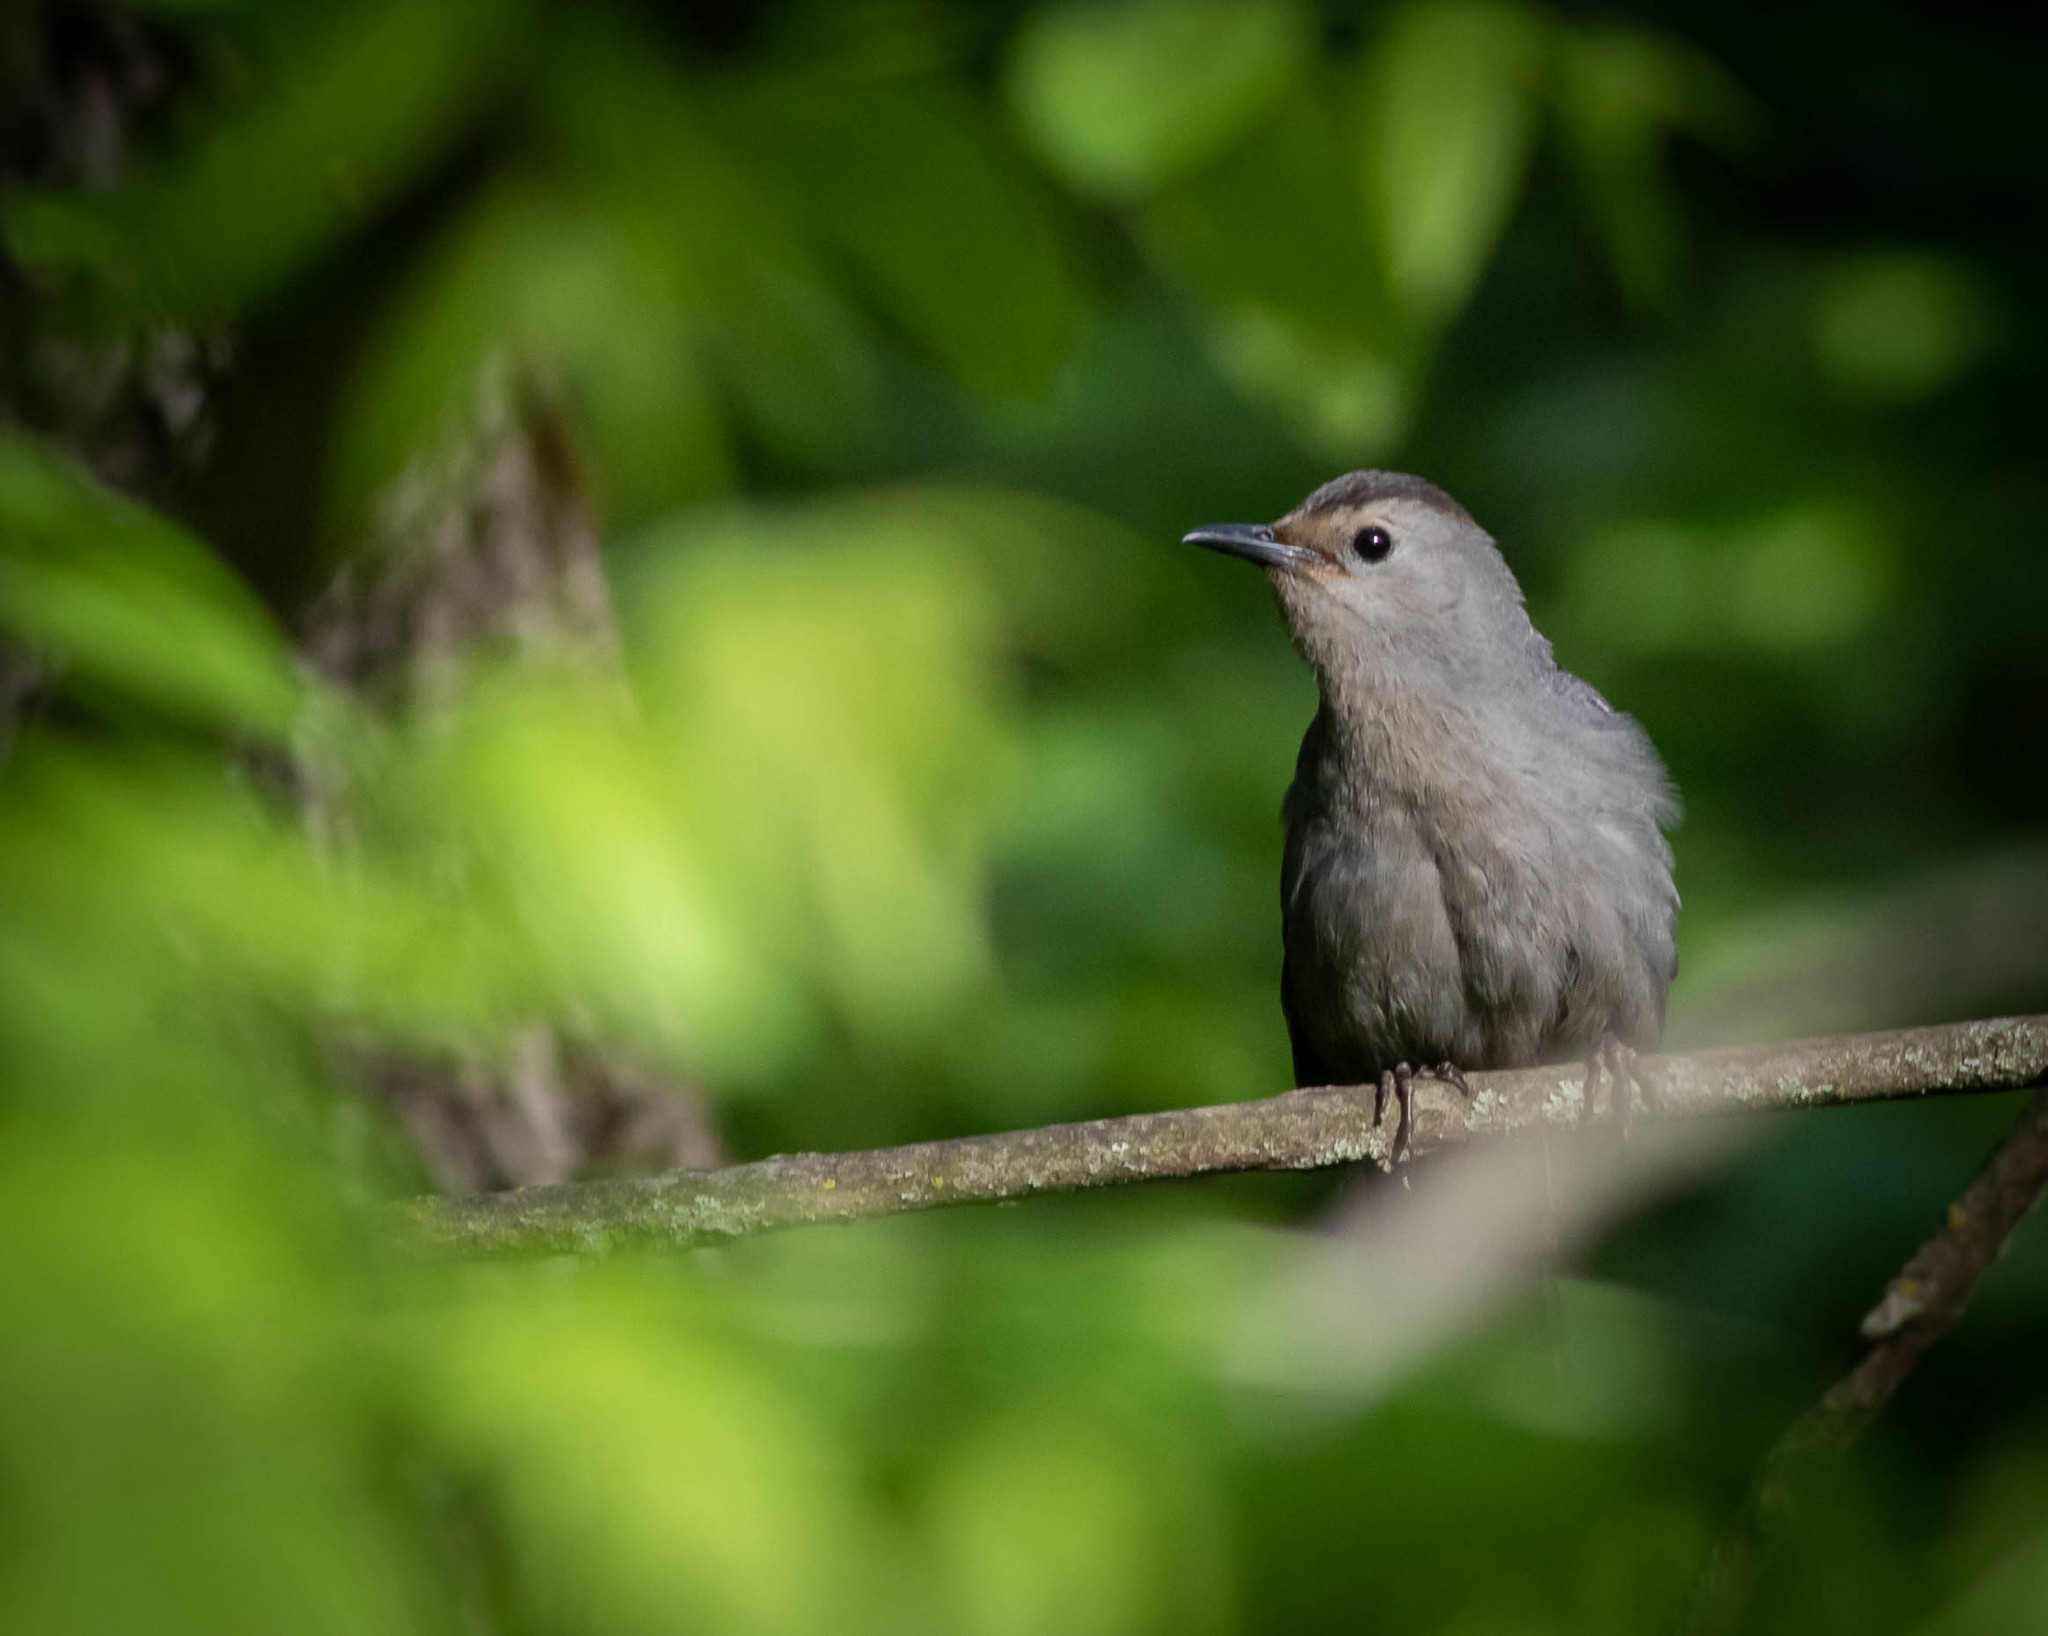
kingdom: Animalia
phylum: Chordata
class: Aves
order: Passeriformes
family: Mimidae
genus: Dumetella
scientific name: Dumetella carolinensis
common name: Gray catbird
